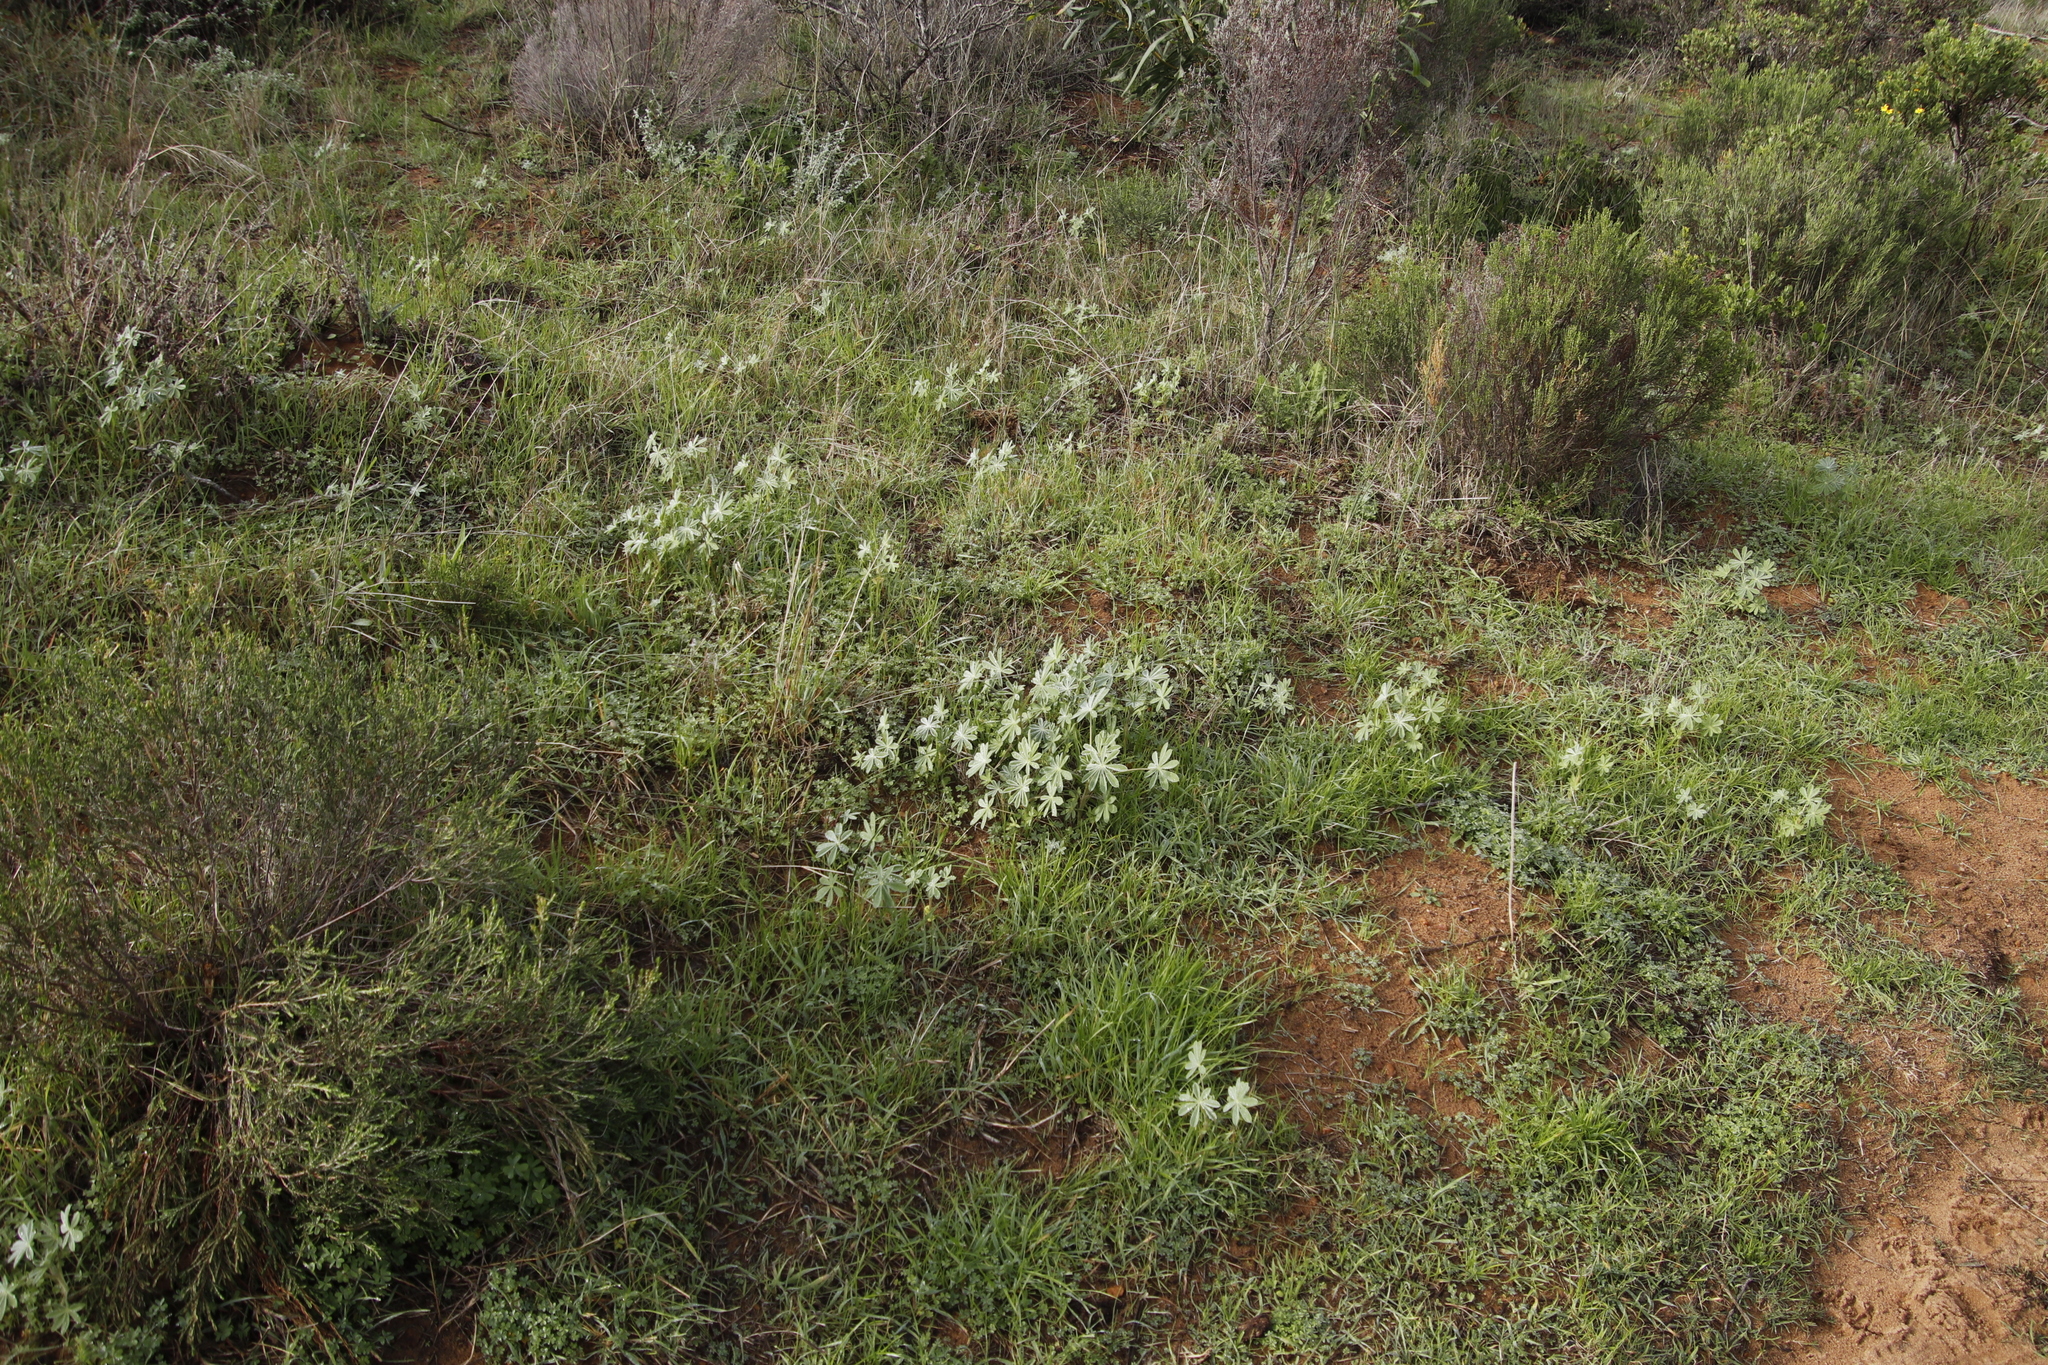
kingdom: Plantae
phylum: Tracheophyta
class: Magnoliopsida
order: Fabales
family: Fabaceae
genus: Lupinus
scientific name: Lupinus cosentinii
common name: Hairy blue lupin
